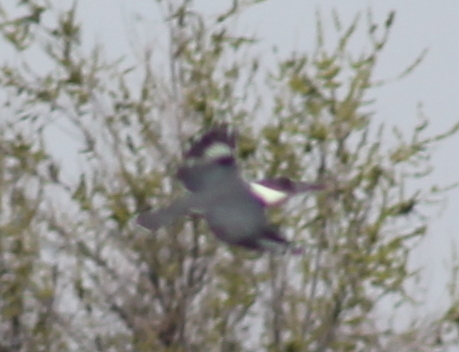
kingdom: Animalia
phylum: Chordata
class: Aves
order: Coraciiformes
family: Alcedinidae
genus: Megaceryle
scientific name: Megaceryle alcyon
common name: Belted kingfisher
